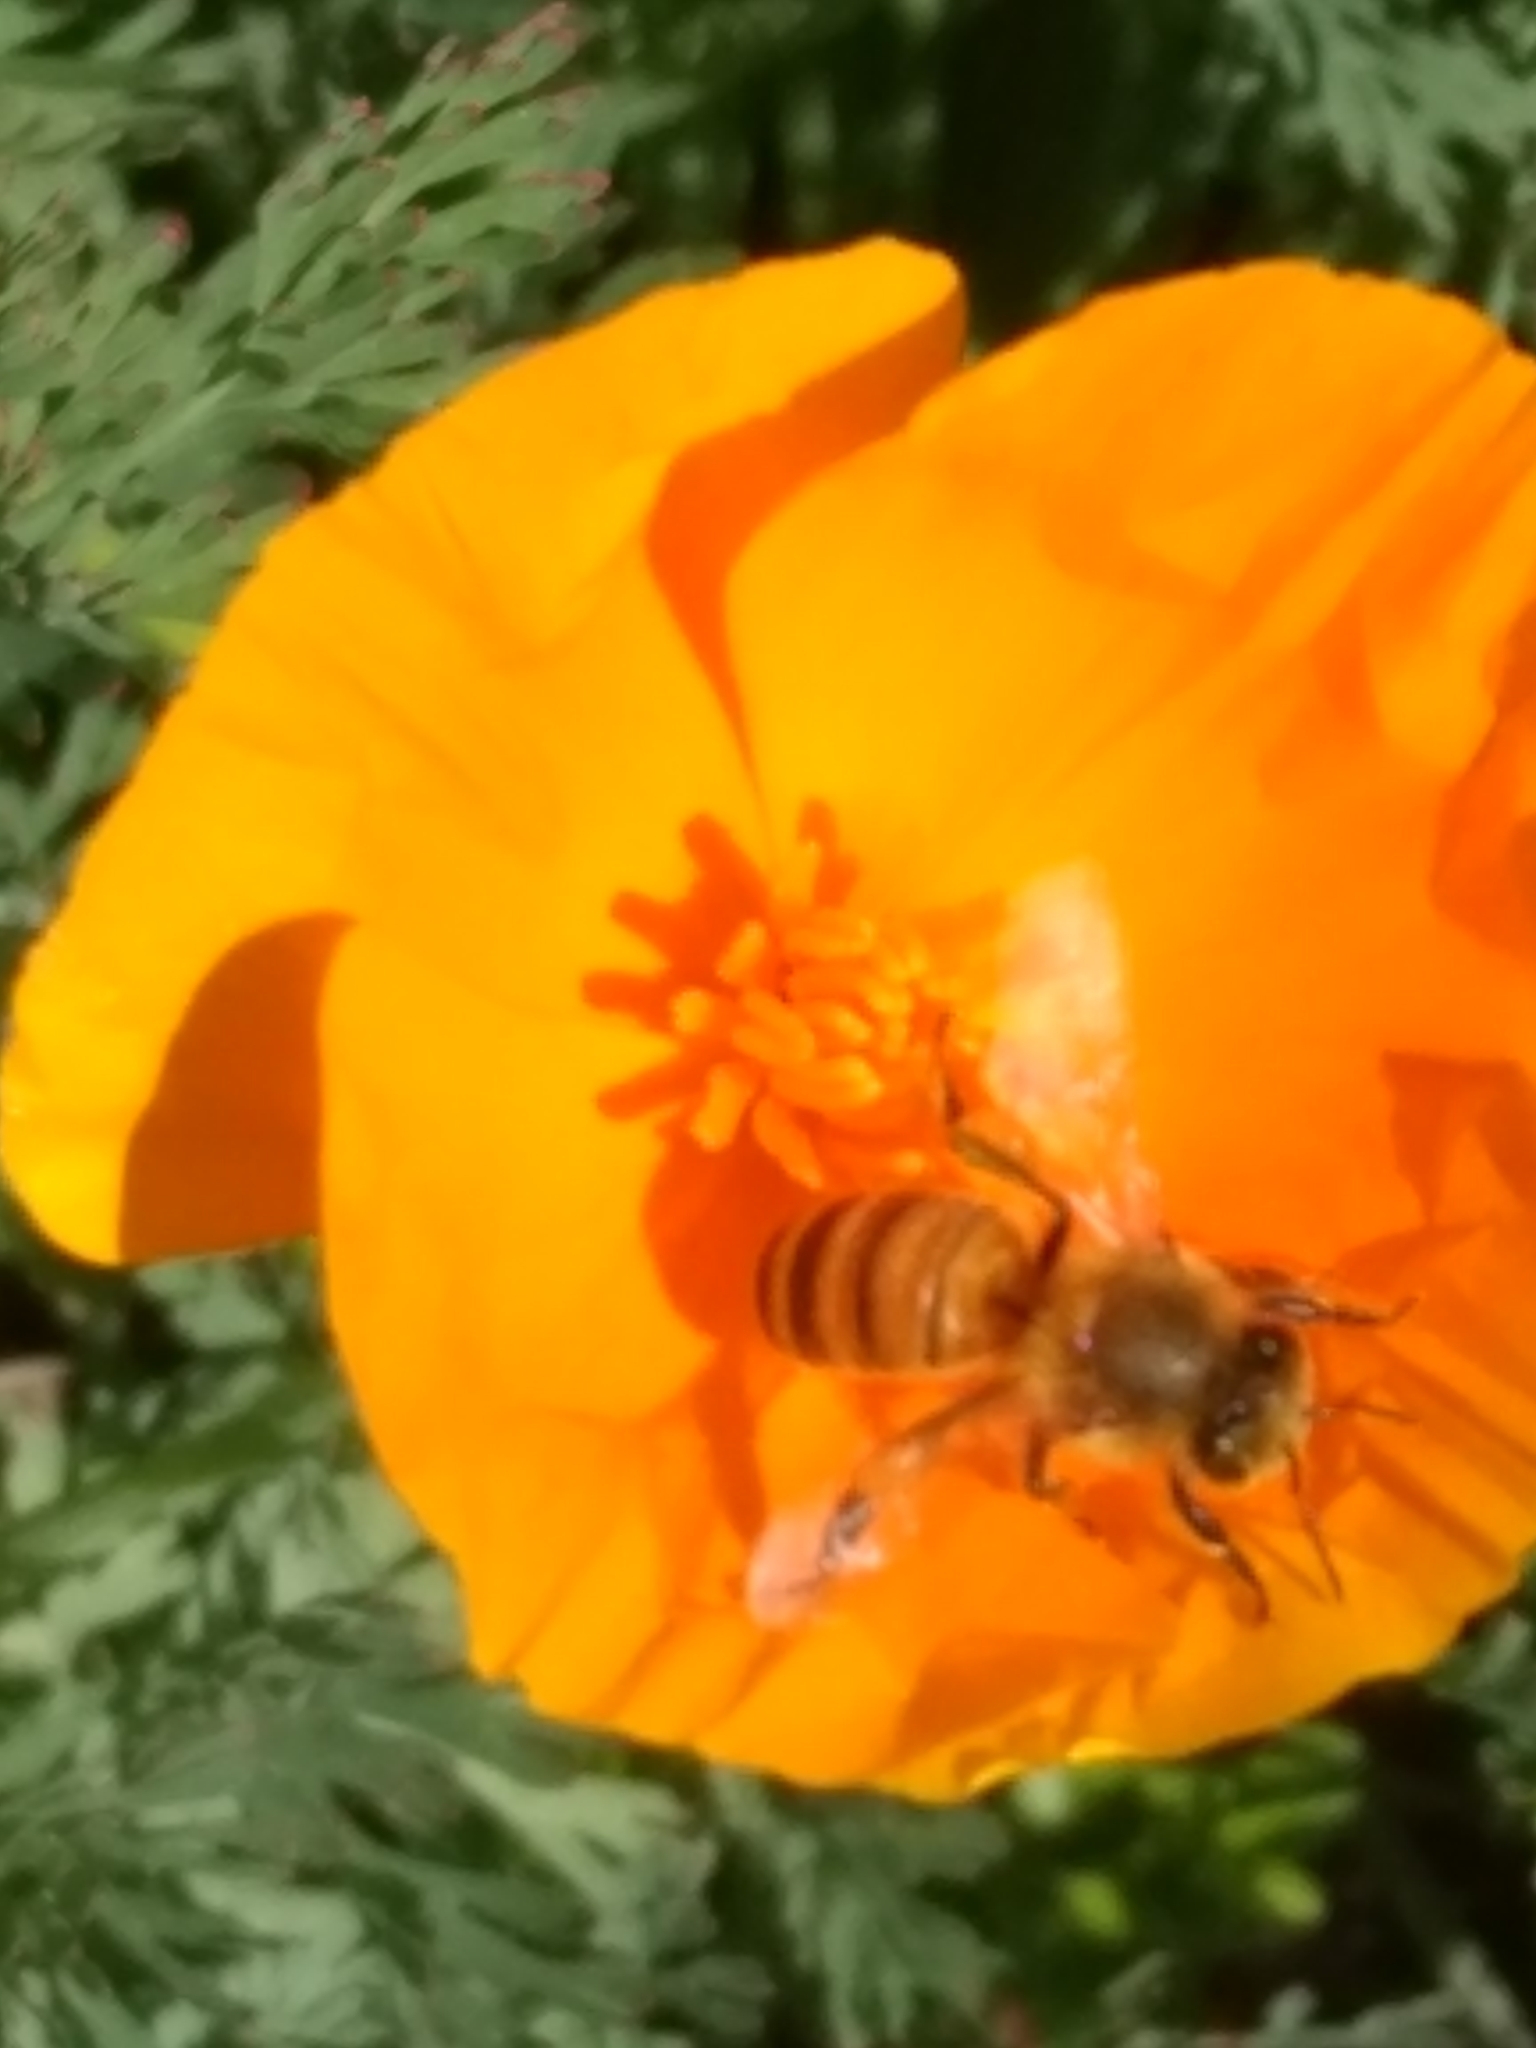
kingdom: Animalia
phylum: Arthropoda
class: Insecta
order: Hymenoptera
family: Apidae
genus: Apis
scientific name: Apis mellifera
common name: Honey bee
